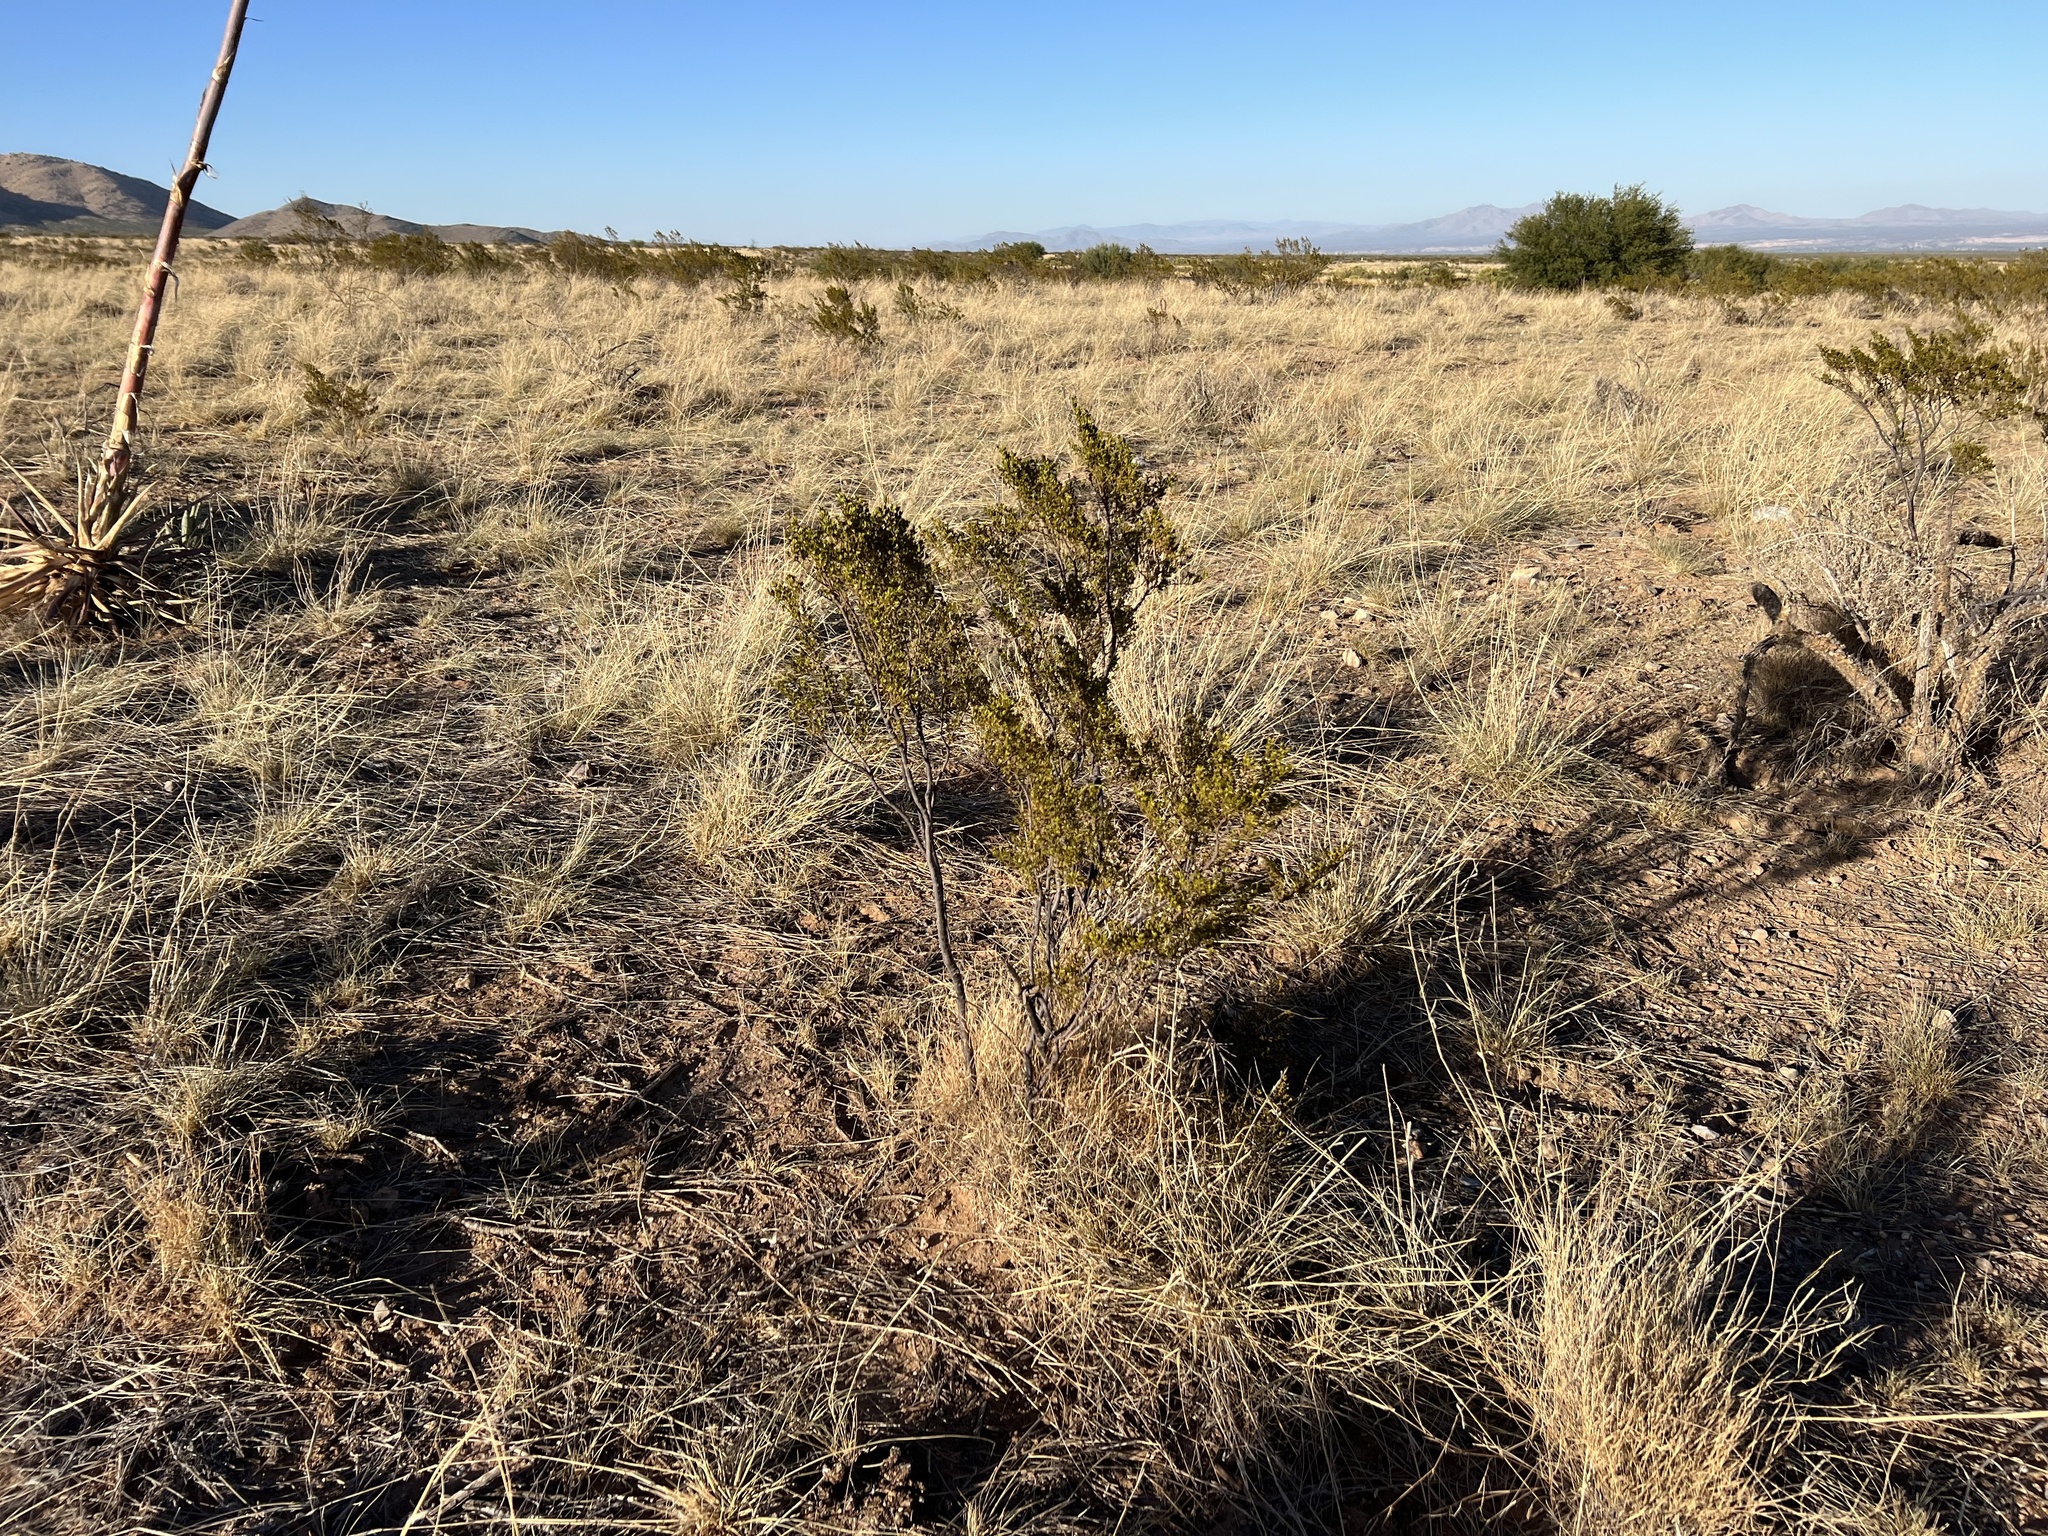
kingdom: Plantae
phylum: Tracheophyta
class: Magnoliopsida
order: Zygophyllales
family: Zygophyllaceae
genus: Larrea
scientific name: Larrea tridentata
